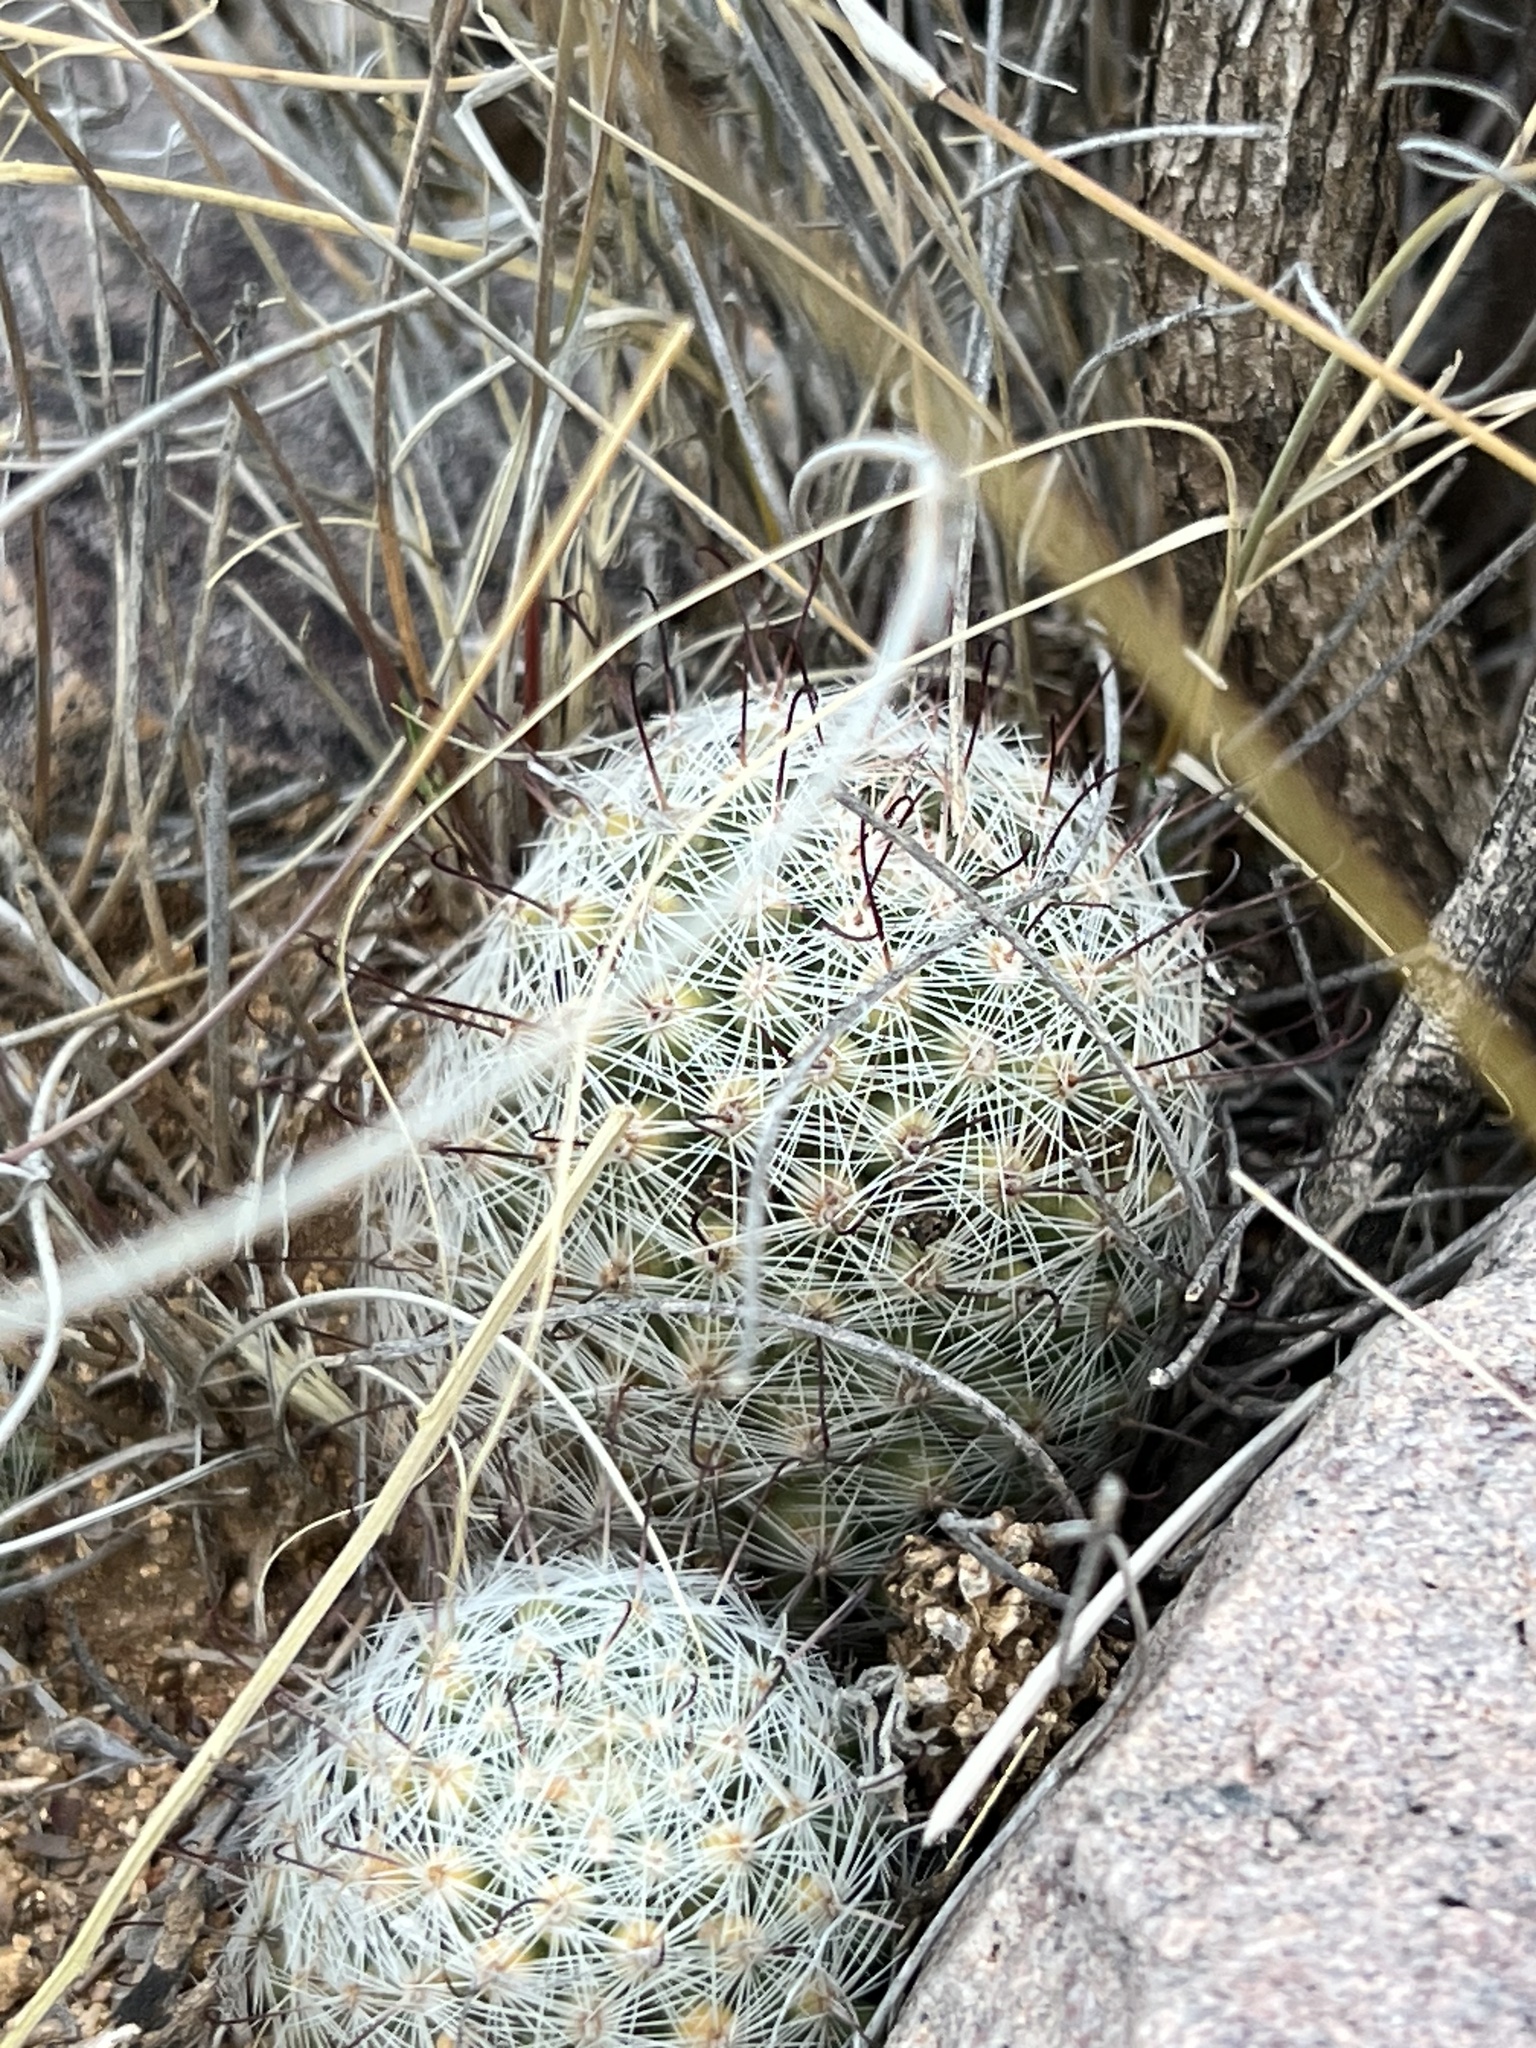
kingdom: Plantae
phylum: Tracheophyta
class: Magnoliopsida
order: Caryophyllales
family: Cactaceae
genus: Cochemiea
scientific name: Cochemiea grahamii
